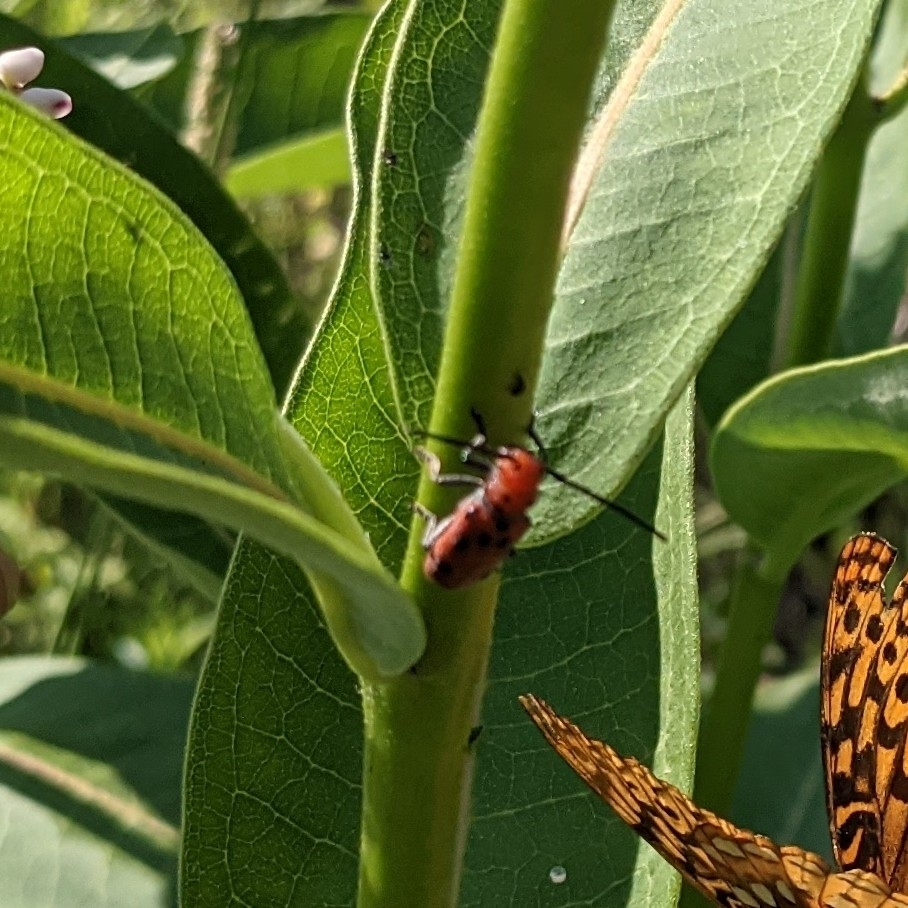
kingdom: Animalia
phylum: Arthropoda
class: Insecta
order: Coleoptera
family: Cerambycidae
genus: Tetraopes
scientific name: Tetraopes tetrophthalmus
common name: Red milkweed beetle
